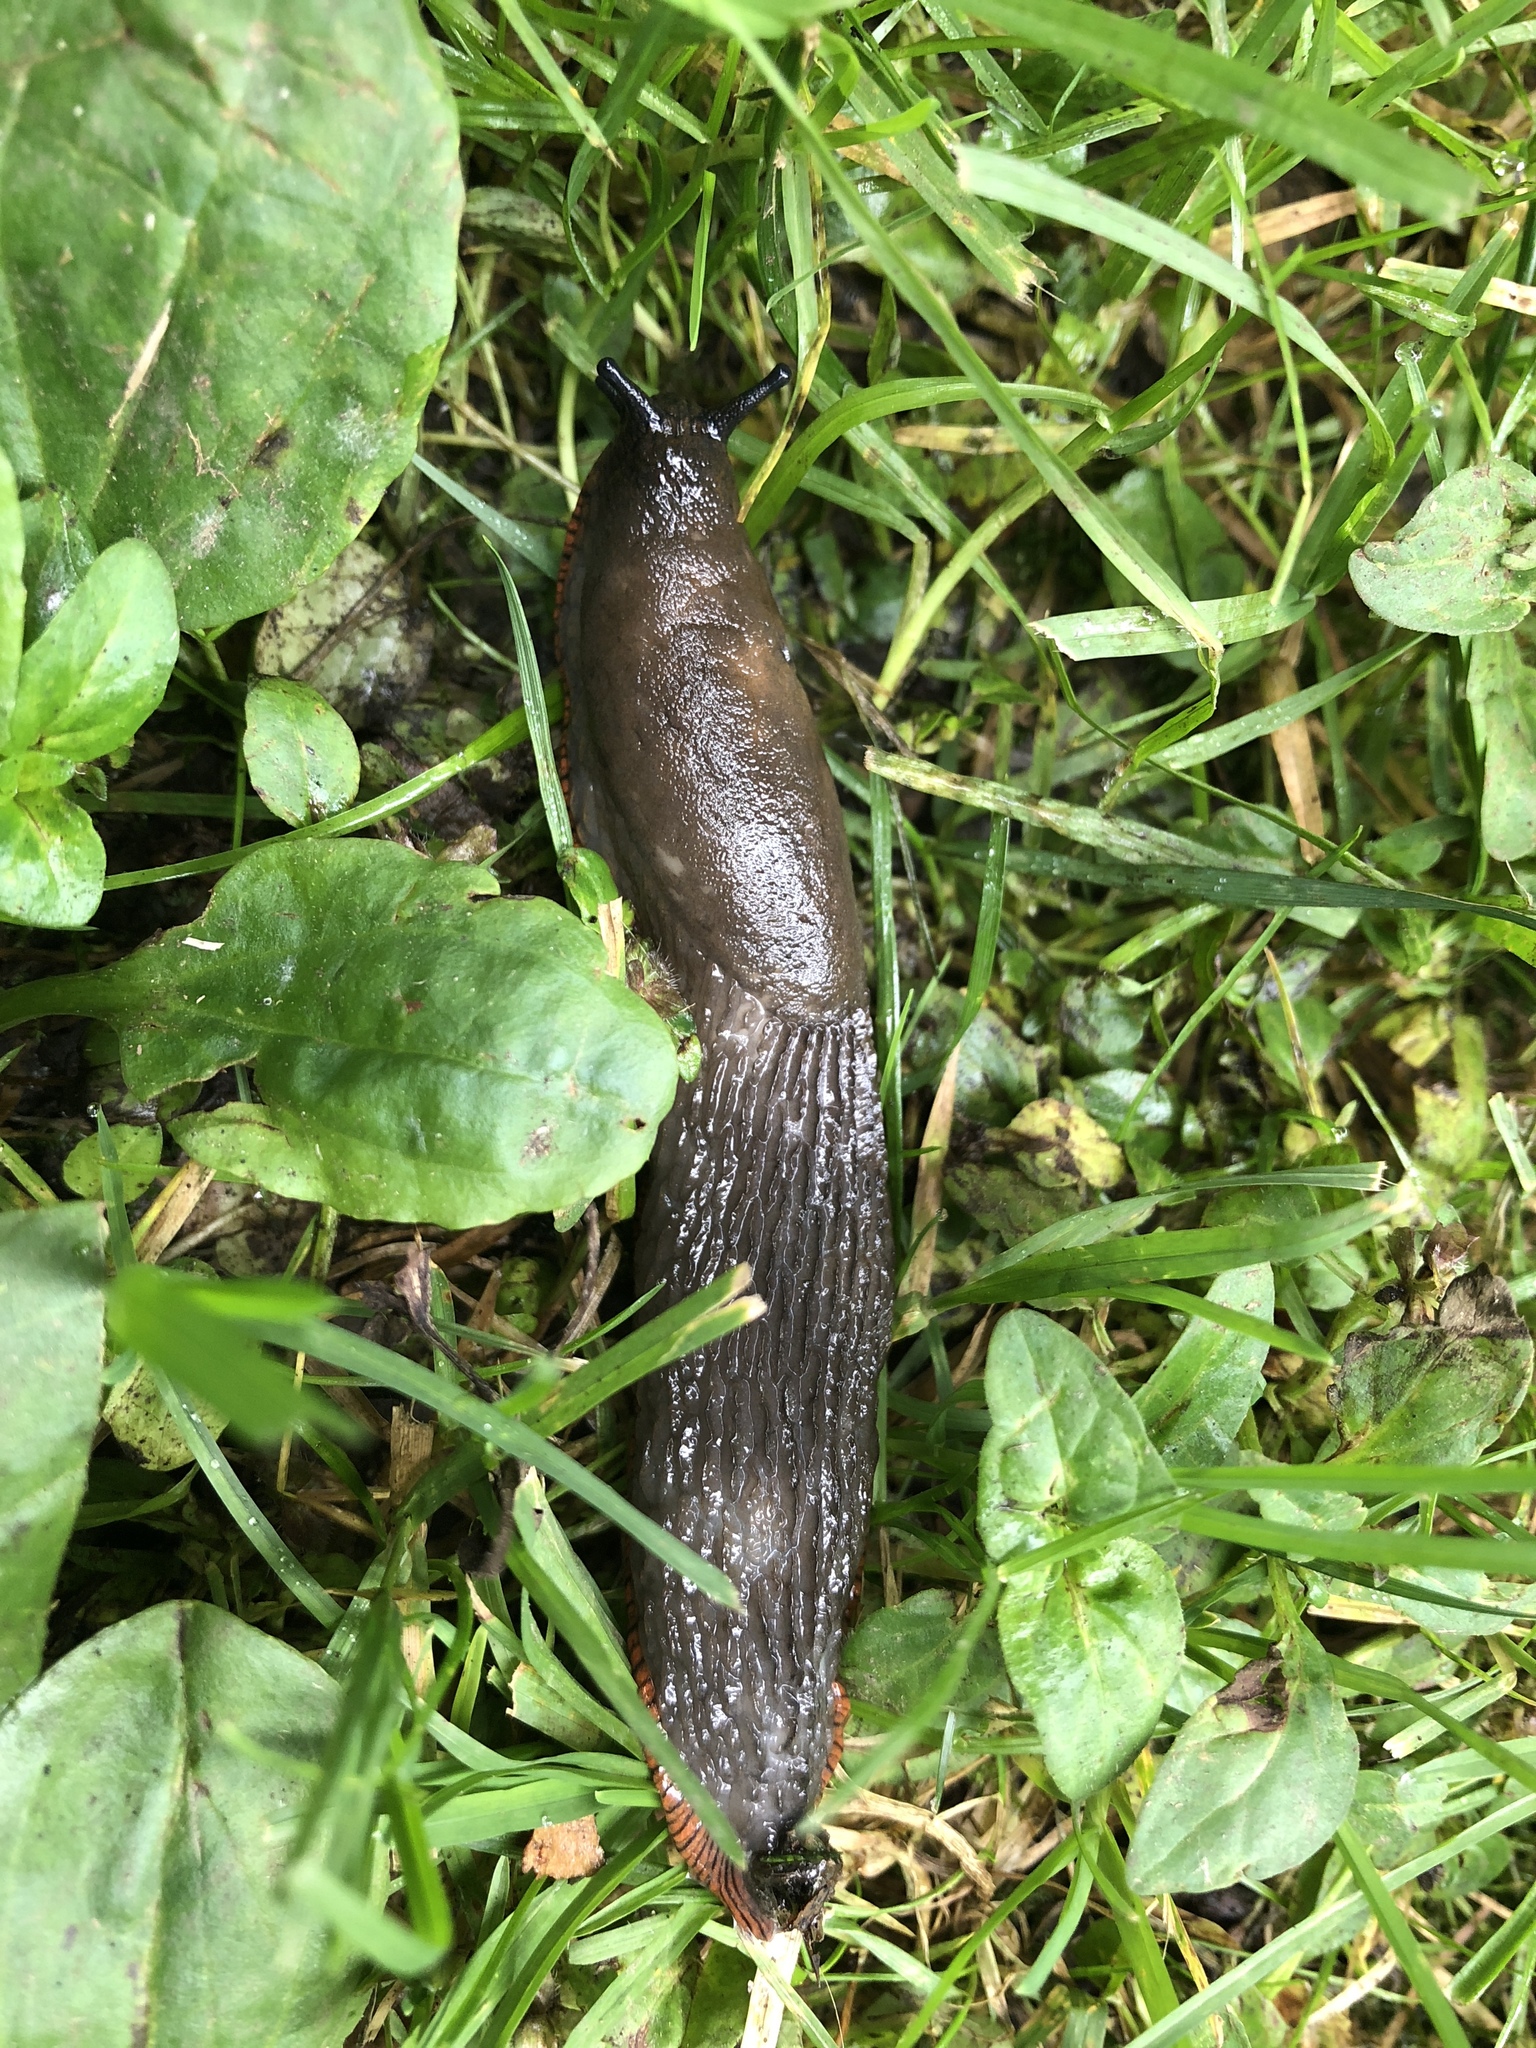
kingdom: Animalia
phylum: Mollusca
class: Gastropoda
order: Stylommatophora
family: Arionidae
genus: Arion
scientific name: Arion
